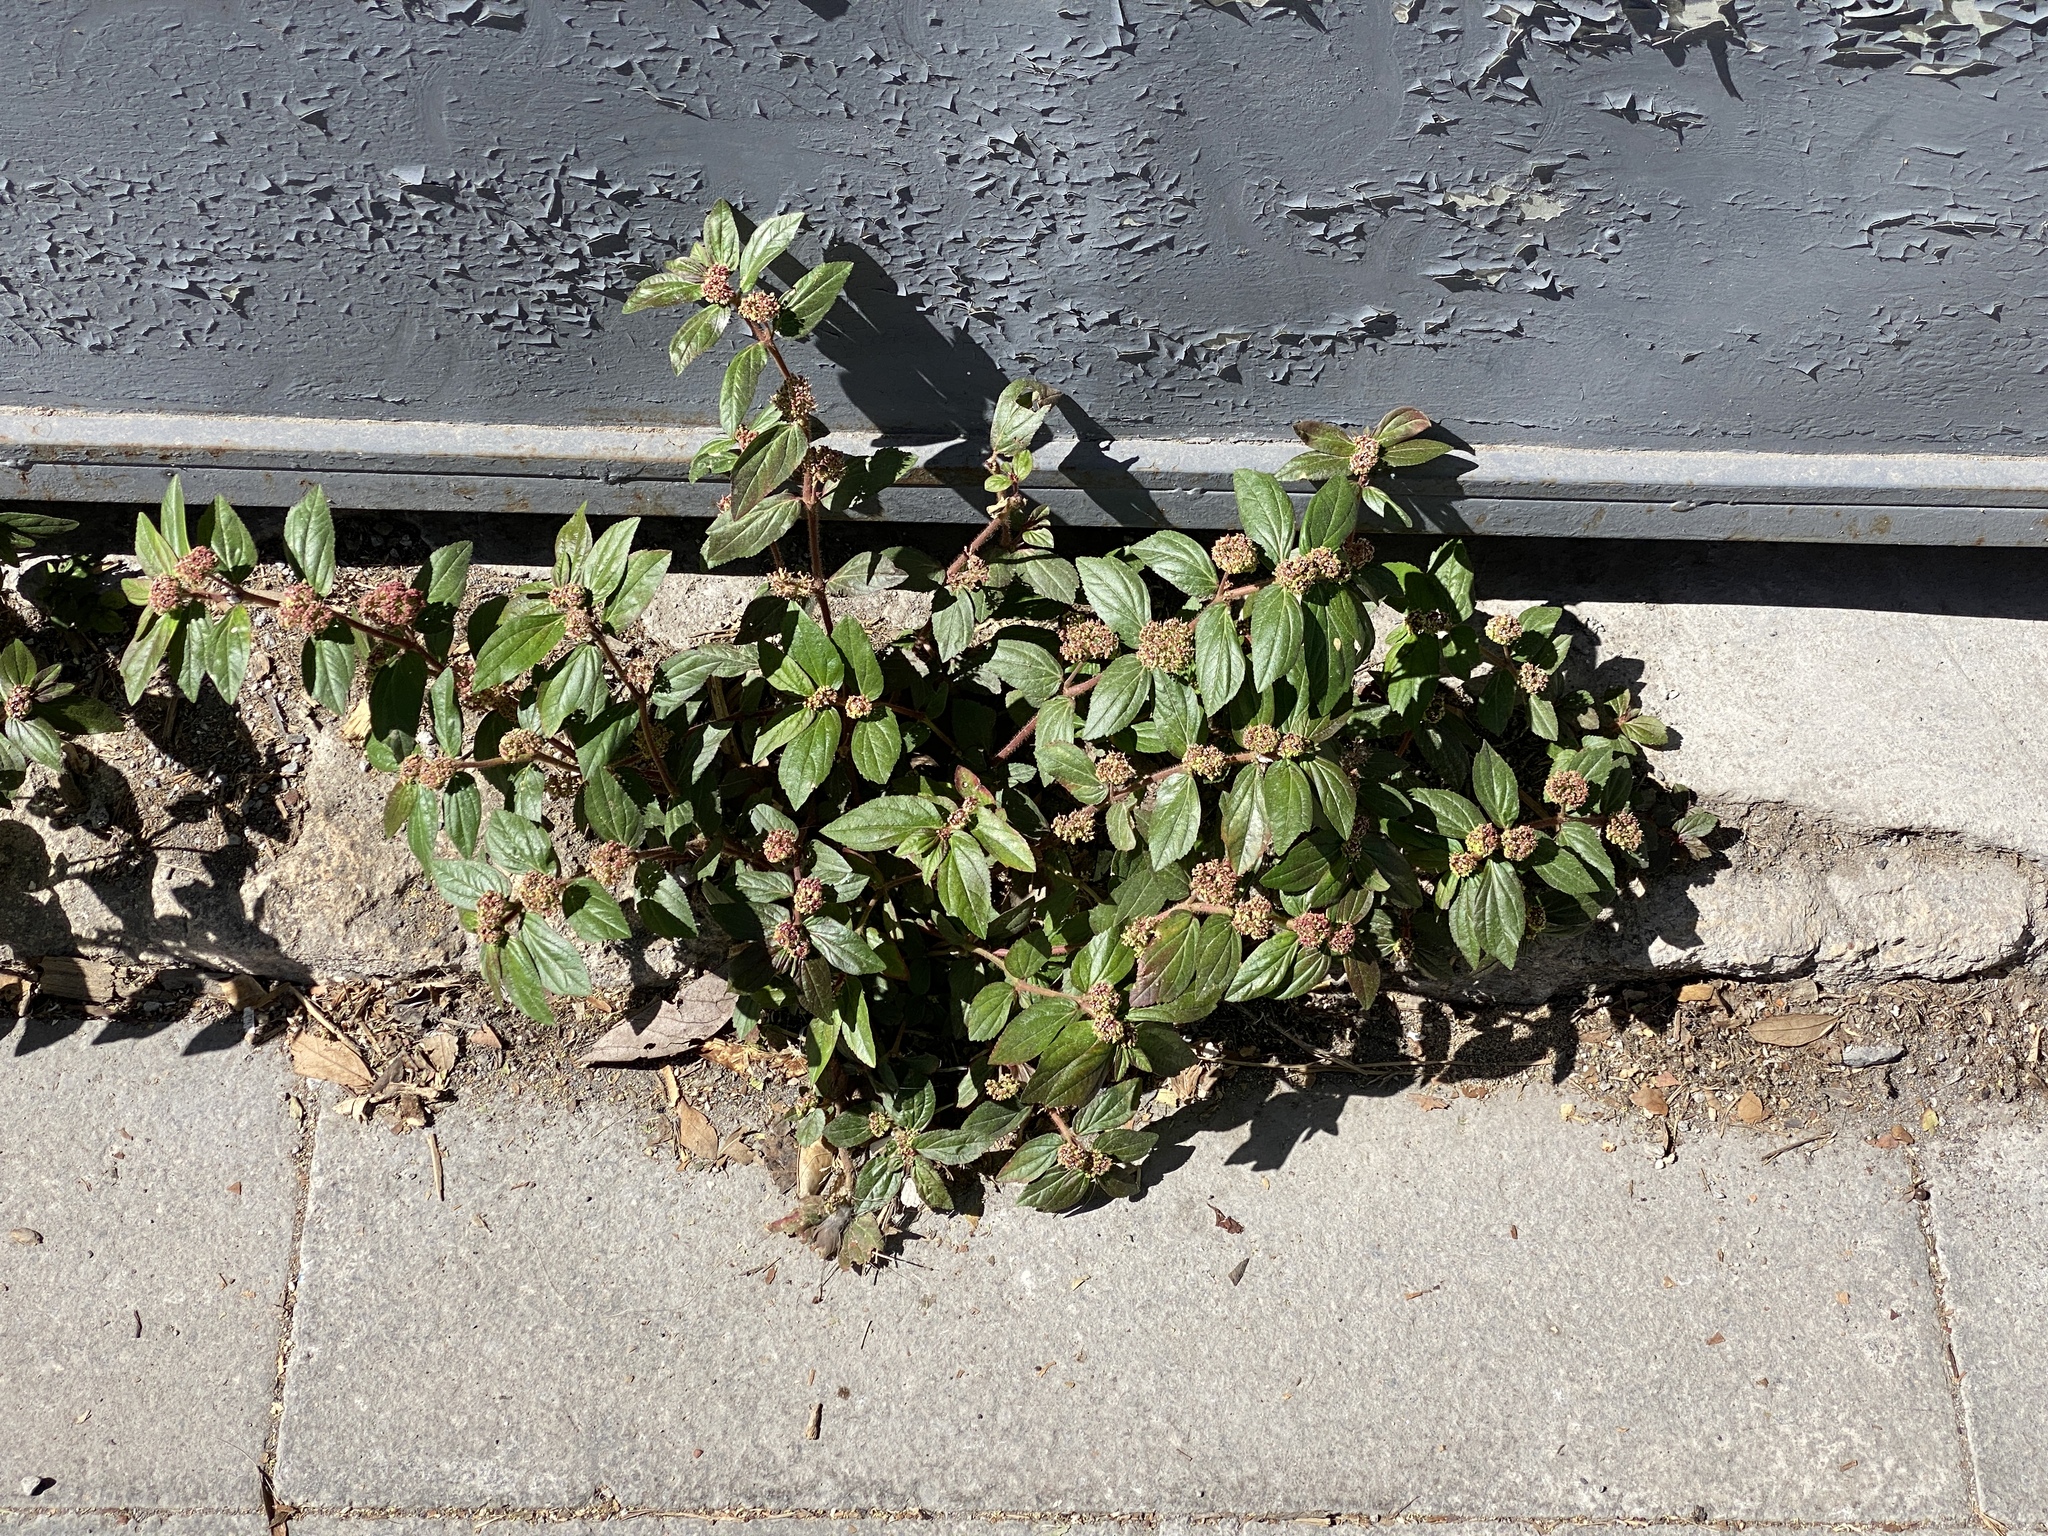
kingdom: Plantae
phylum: Tracheophyta
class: Magnoliopsida
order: Malpighiales
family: Euphorbiaceae
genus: Euphorbia
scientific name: Euphorbia hirta
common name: Pillpod sandmat
